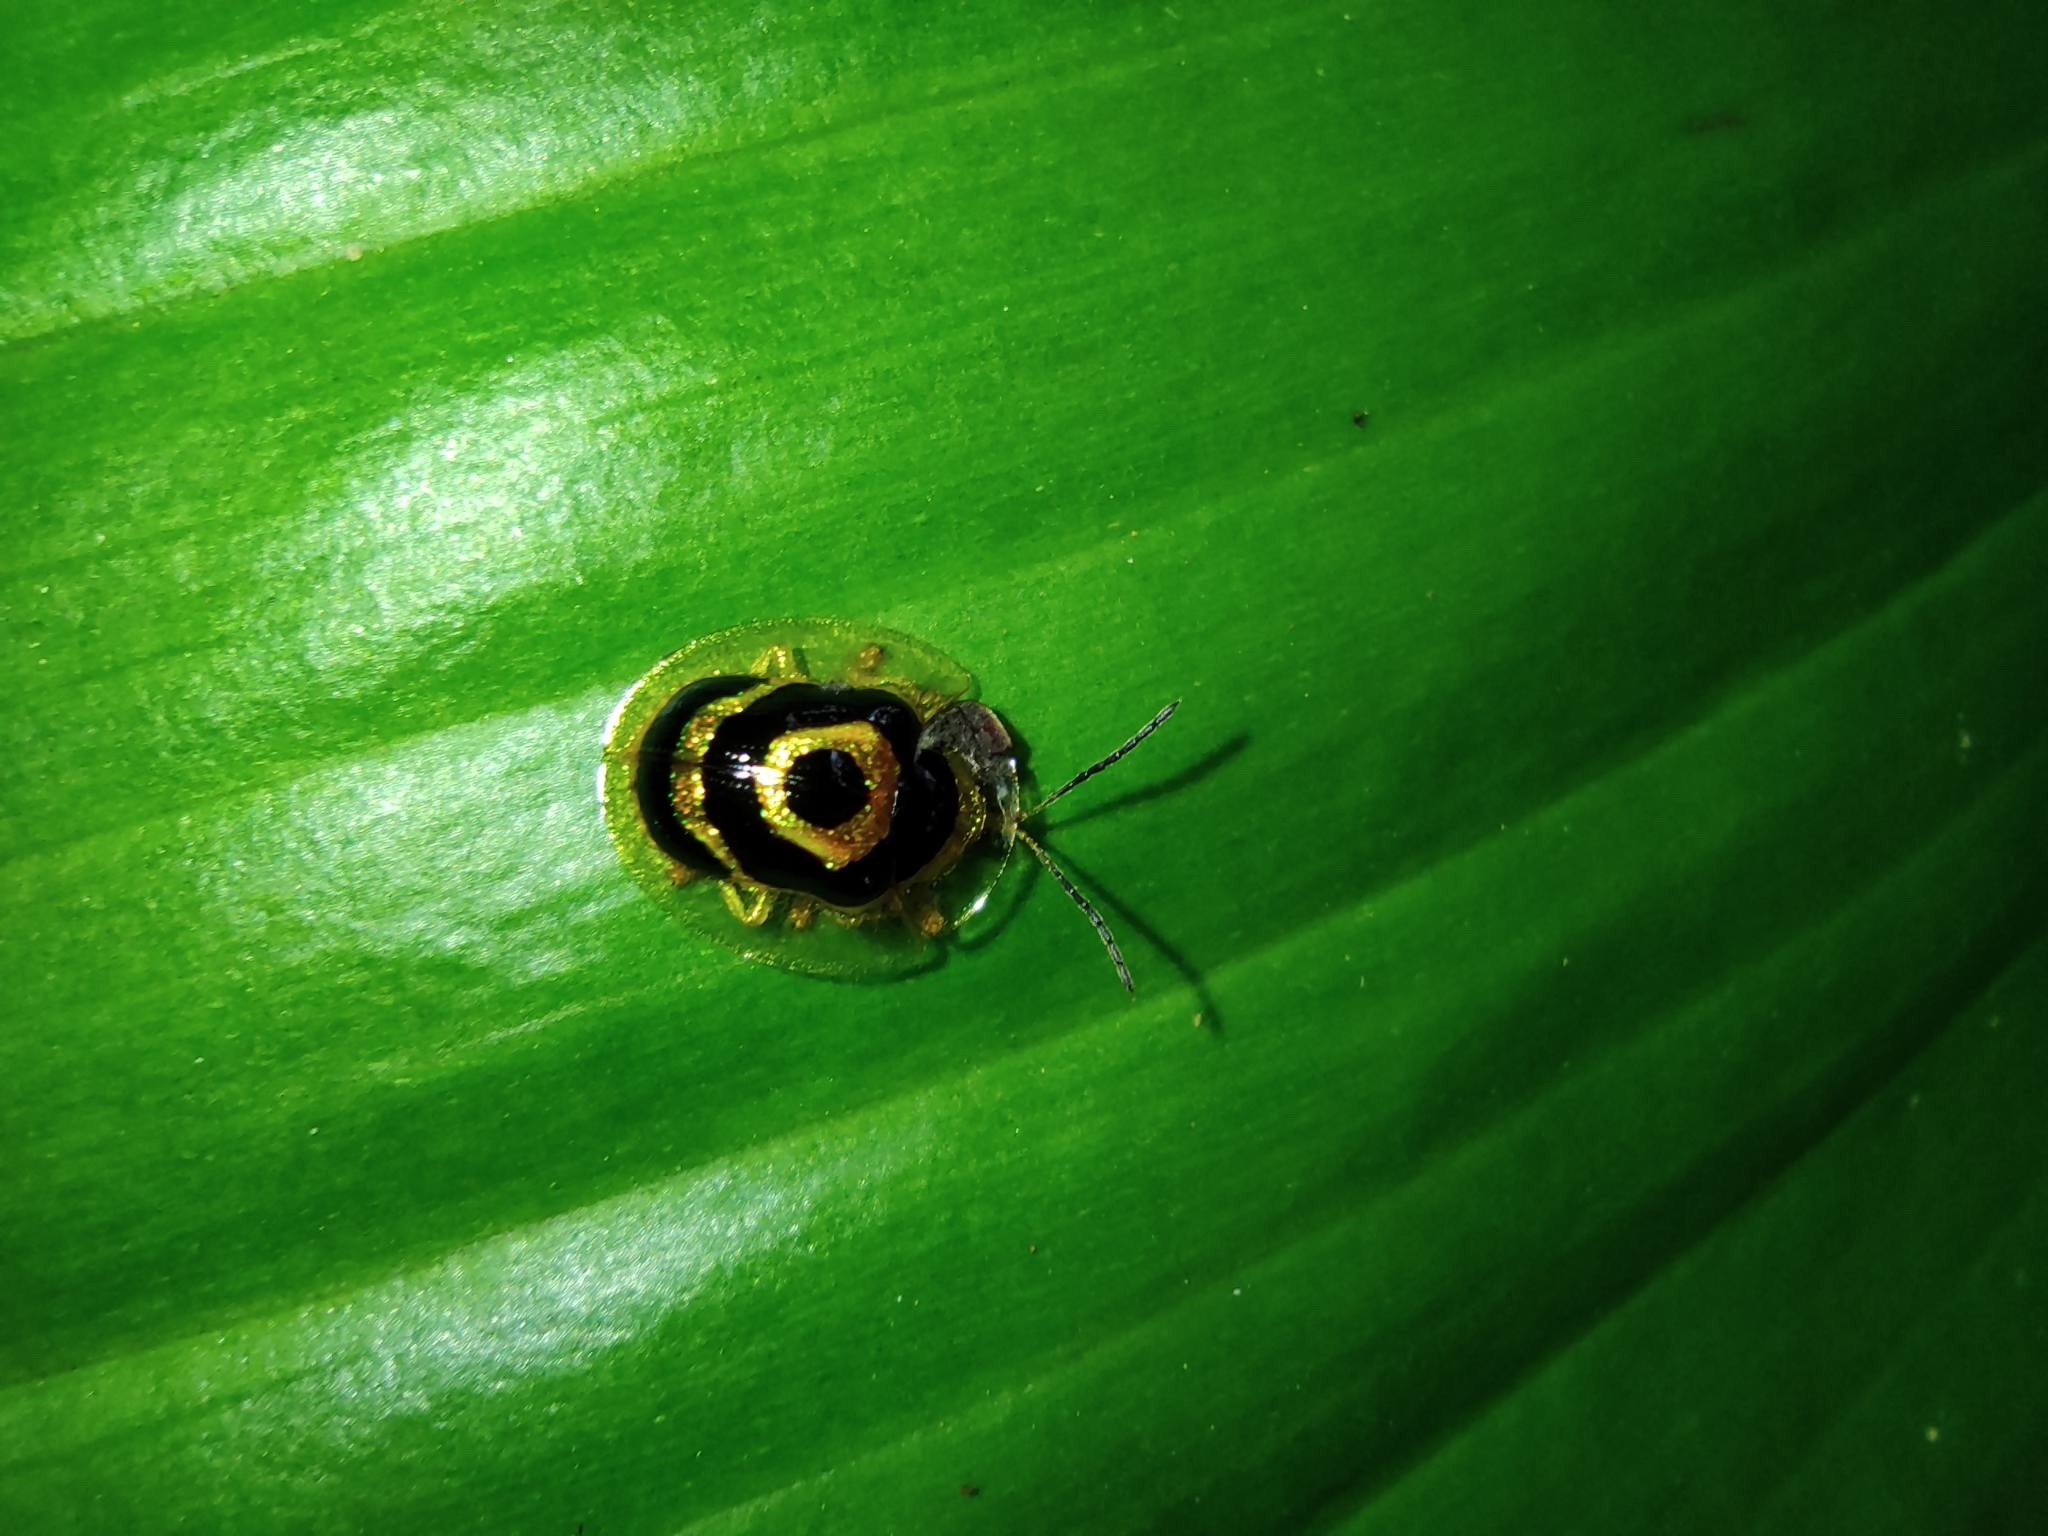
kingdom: Animalia
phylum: Arthropoda
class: Insecta
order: Coleoptera
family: Chrysomelidae
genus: Ischnocodia
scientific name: Ischnocodia annulus
